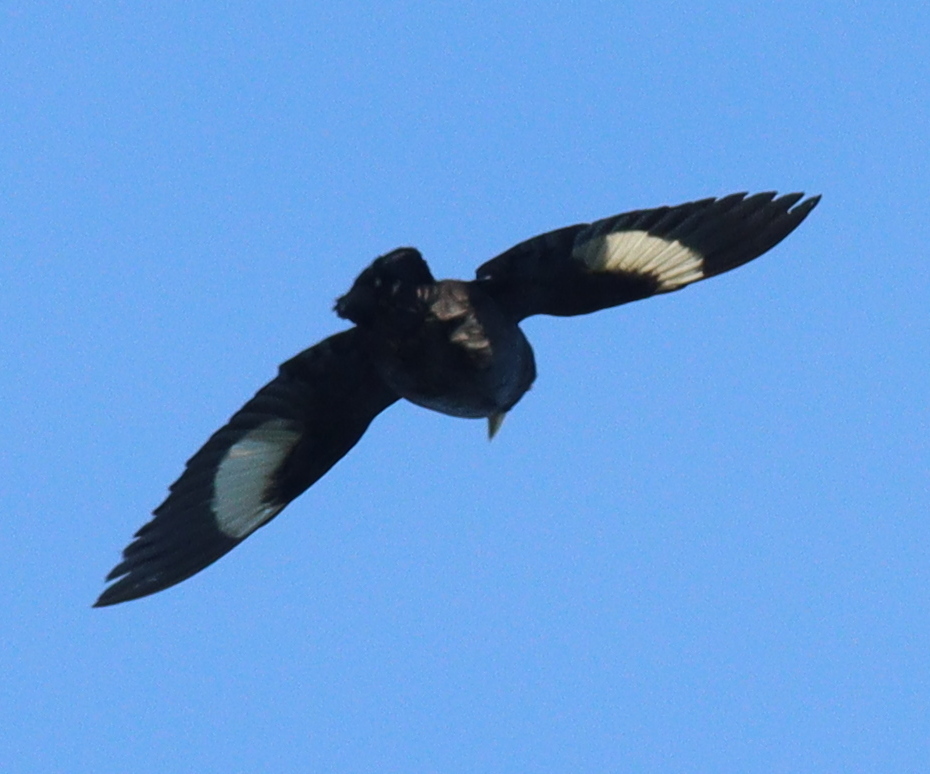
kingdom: Animalia
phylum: Chordata
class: Aves
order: Passeriformes
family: Sturnidae
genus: Acridotheres
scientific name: Acridotheres cristatellus
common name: Crested myna
